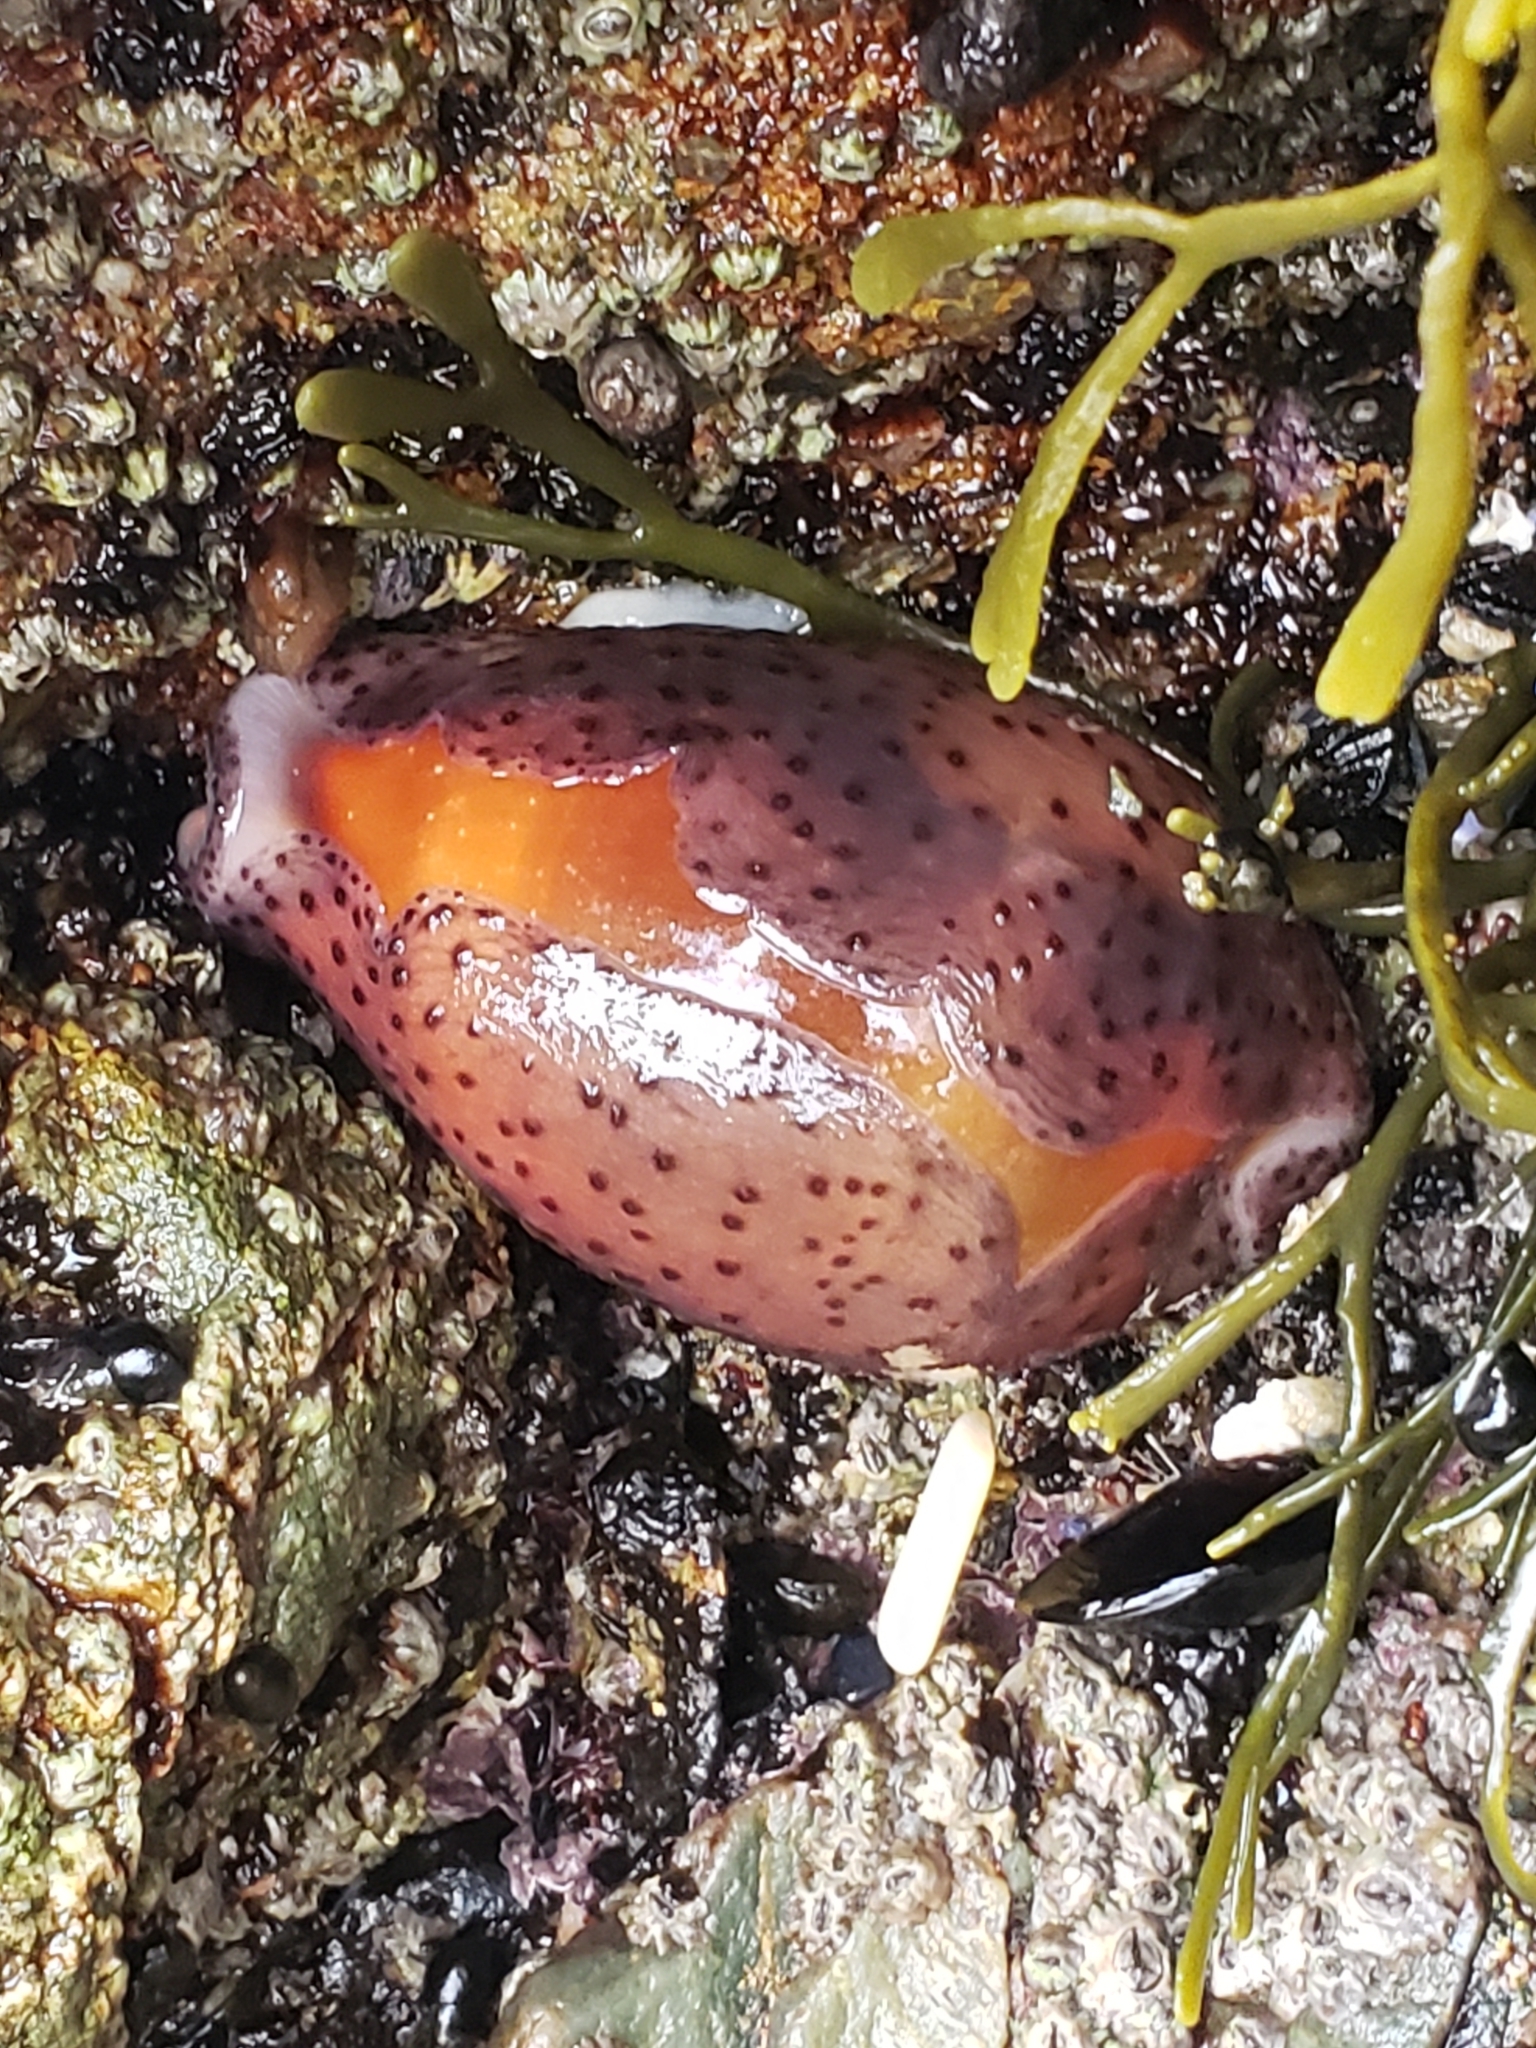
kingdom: Animalia
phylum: Mollusca
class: Gastropoda
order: Littorinimorpha
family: Cypraeidae
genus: Neobernaya
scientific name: Neobernaya spadicea
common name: Chestnut cowrie
